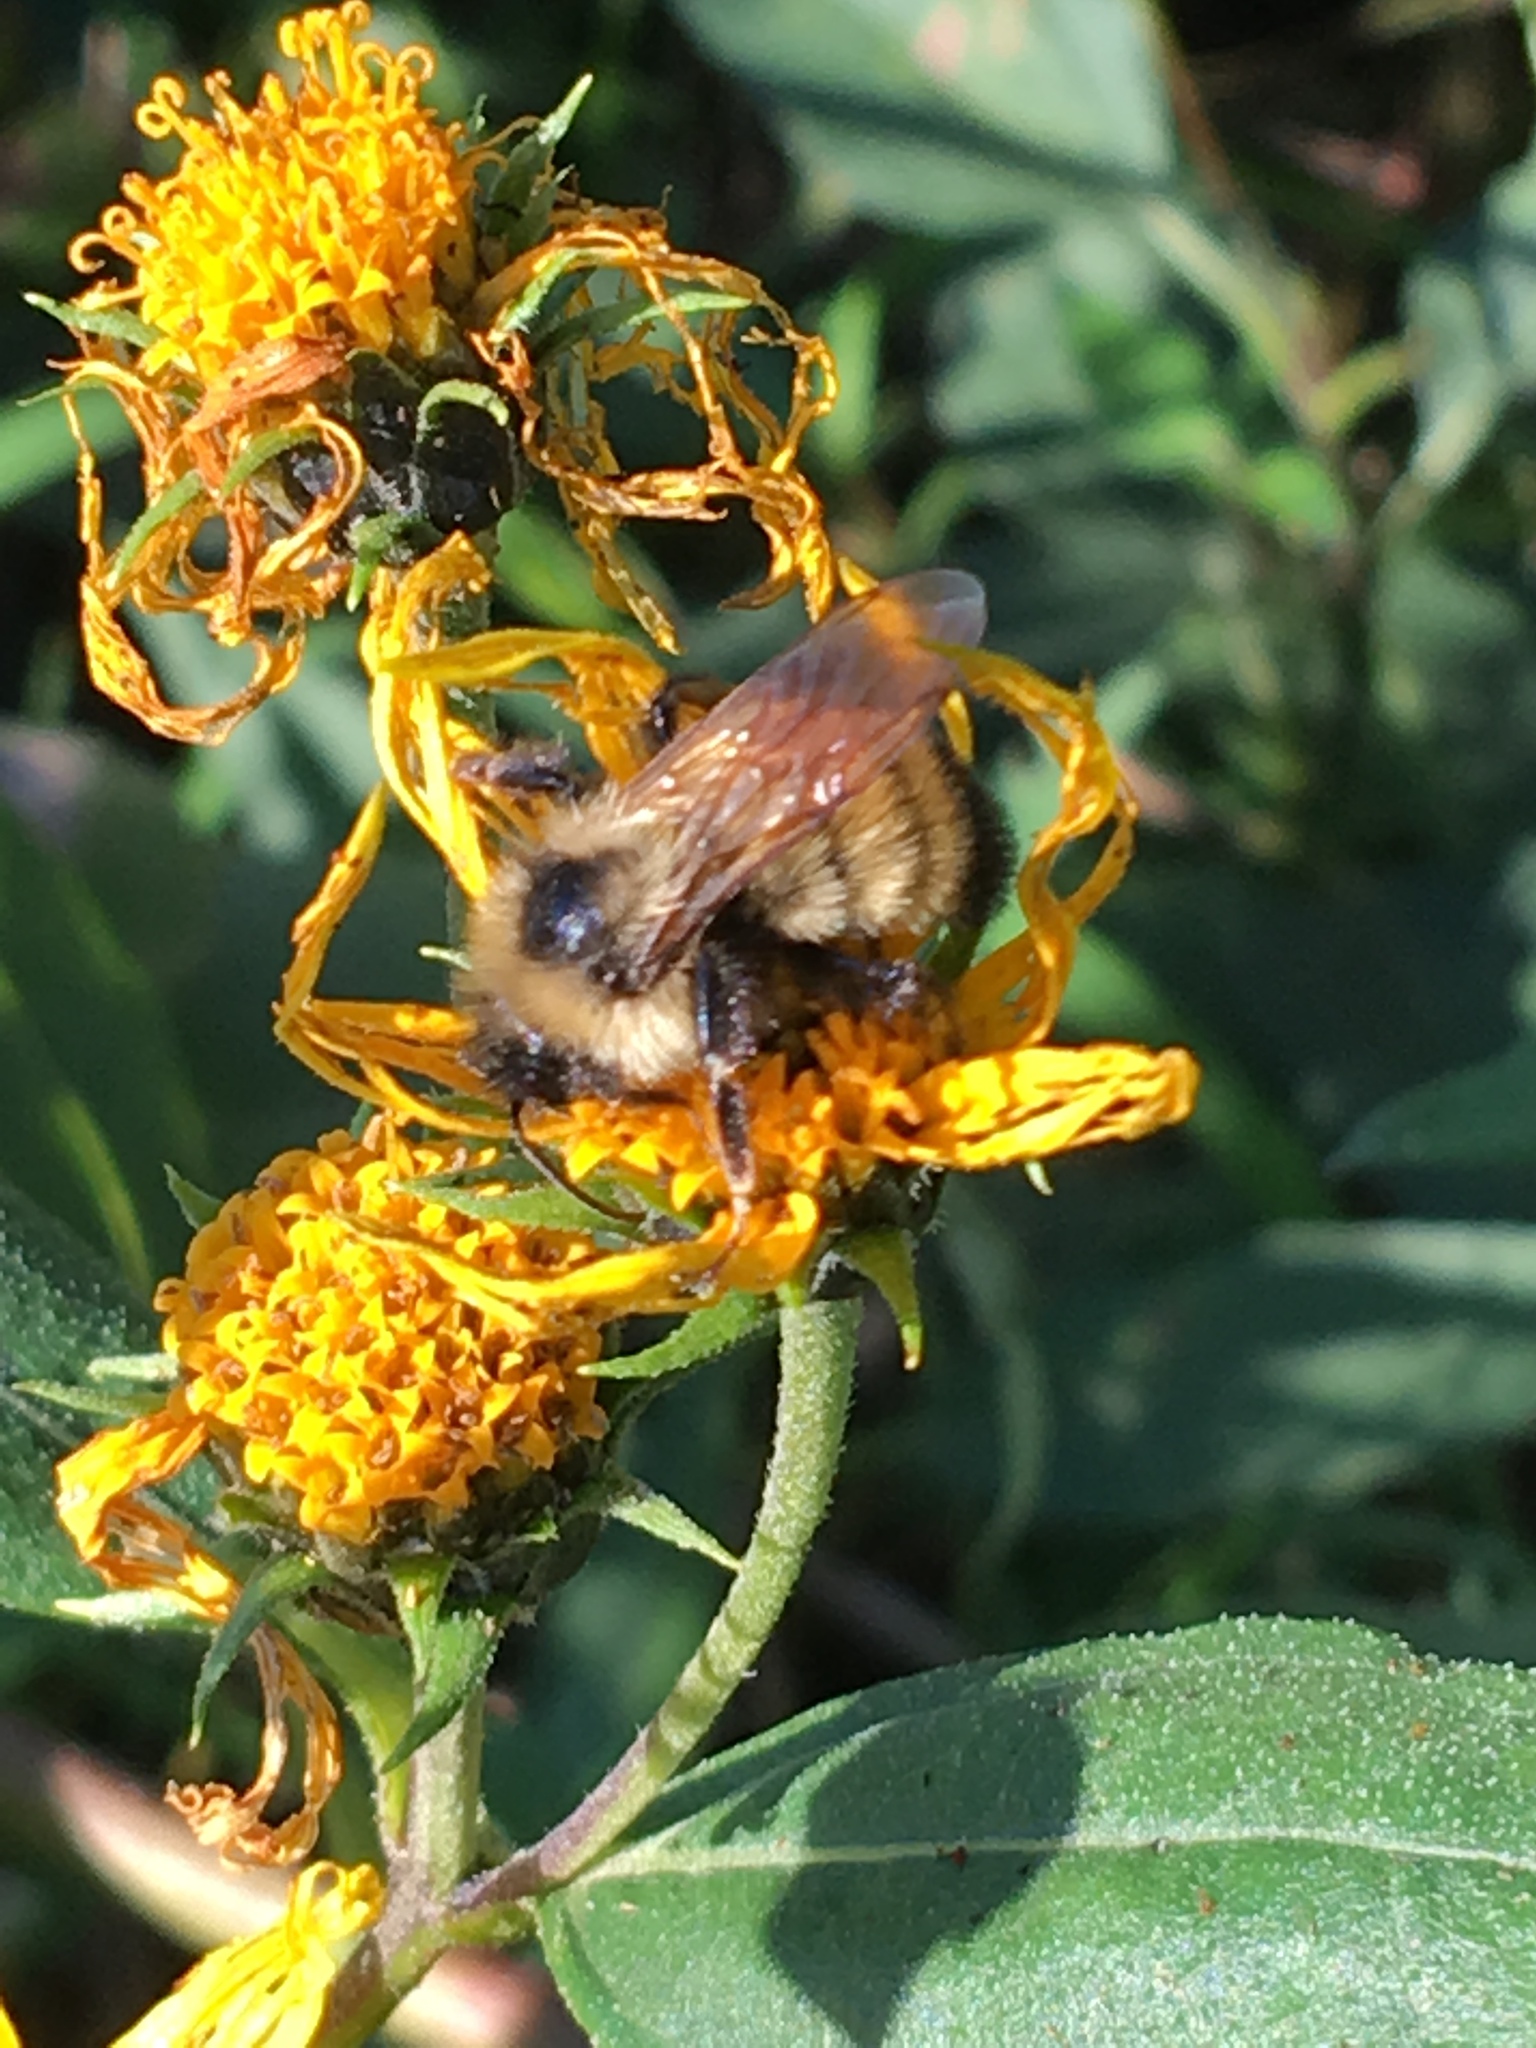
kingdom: Animalia
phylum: Arthropoda
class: Insecta
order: Hymenoptera
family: Apidae
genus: Bombus
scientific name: Bombus citrinus
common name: Lemon cuckoo bumble bee
